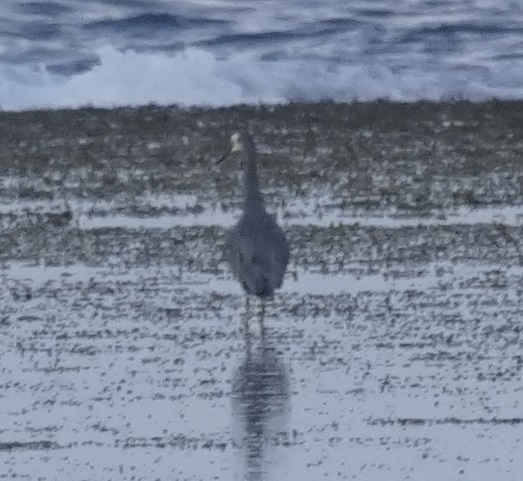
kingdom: Animalia
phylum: Chordata
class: Aves
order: Pelecaniformes
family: Ardeidae
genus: Egretta
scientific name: Egretta novaehollandiae
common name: White-faced heron
